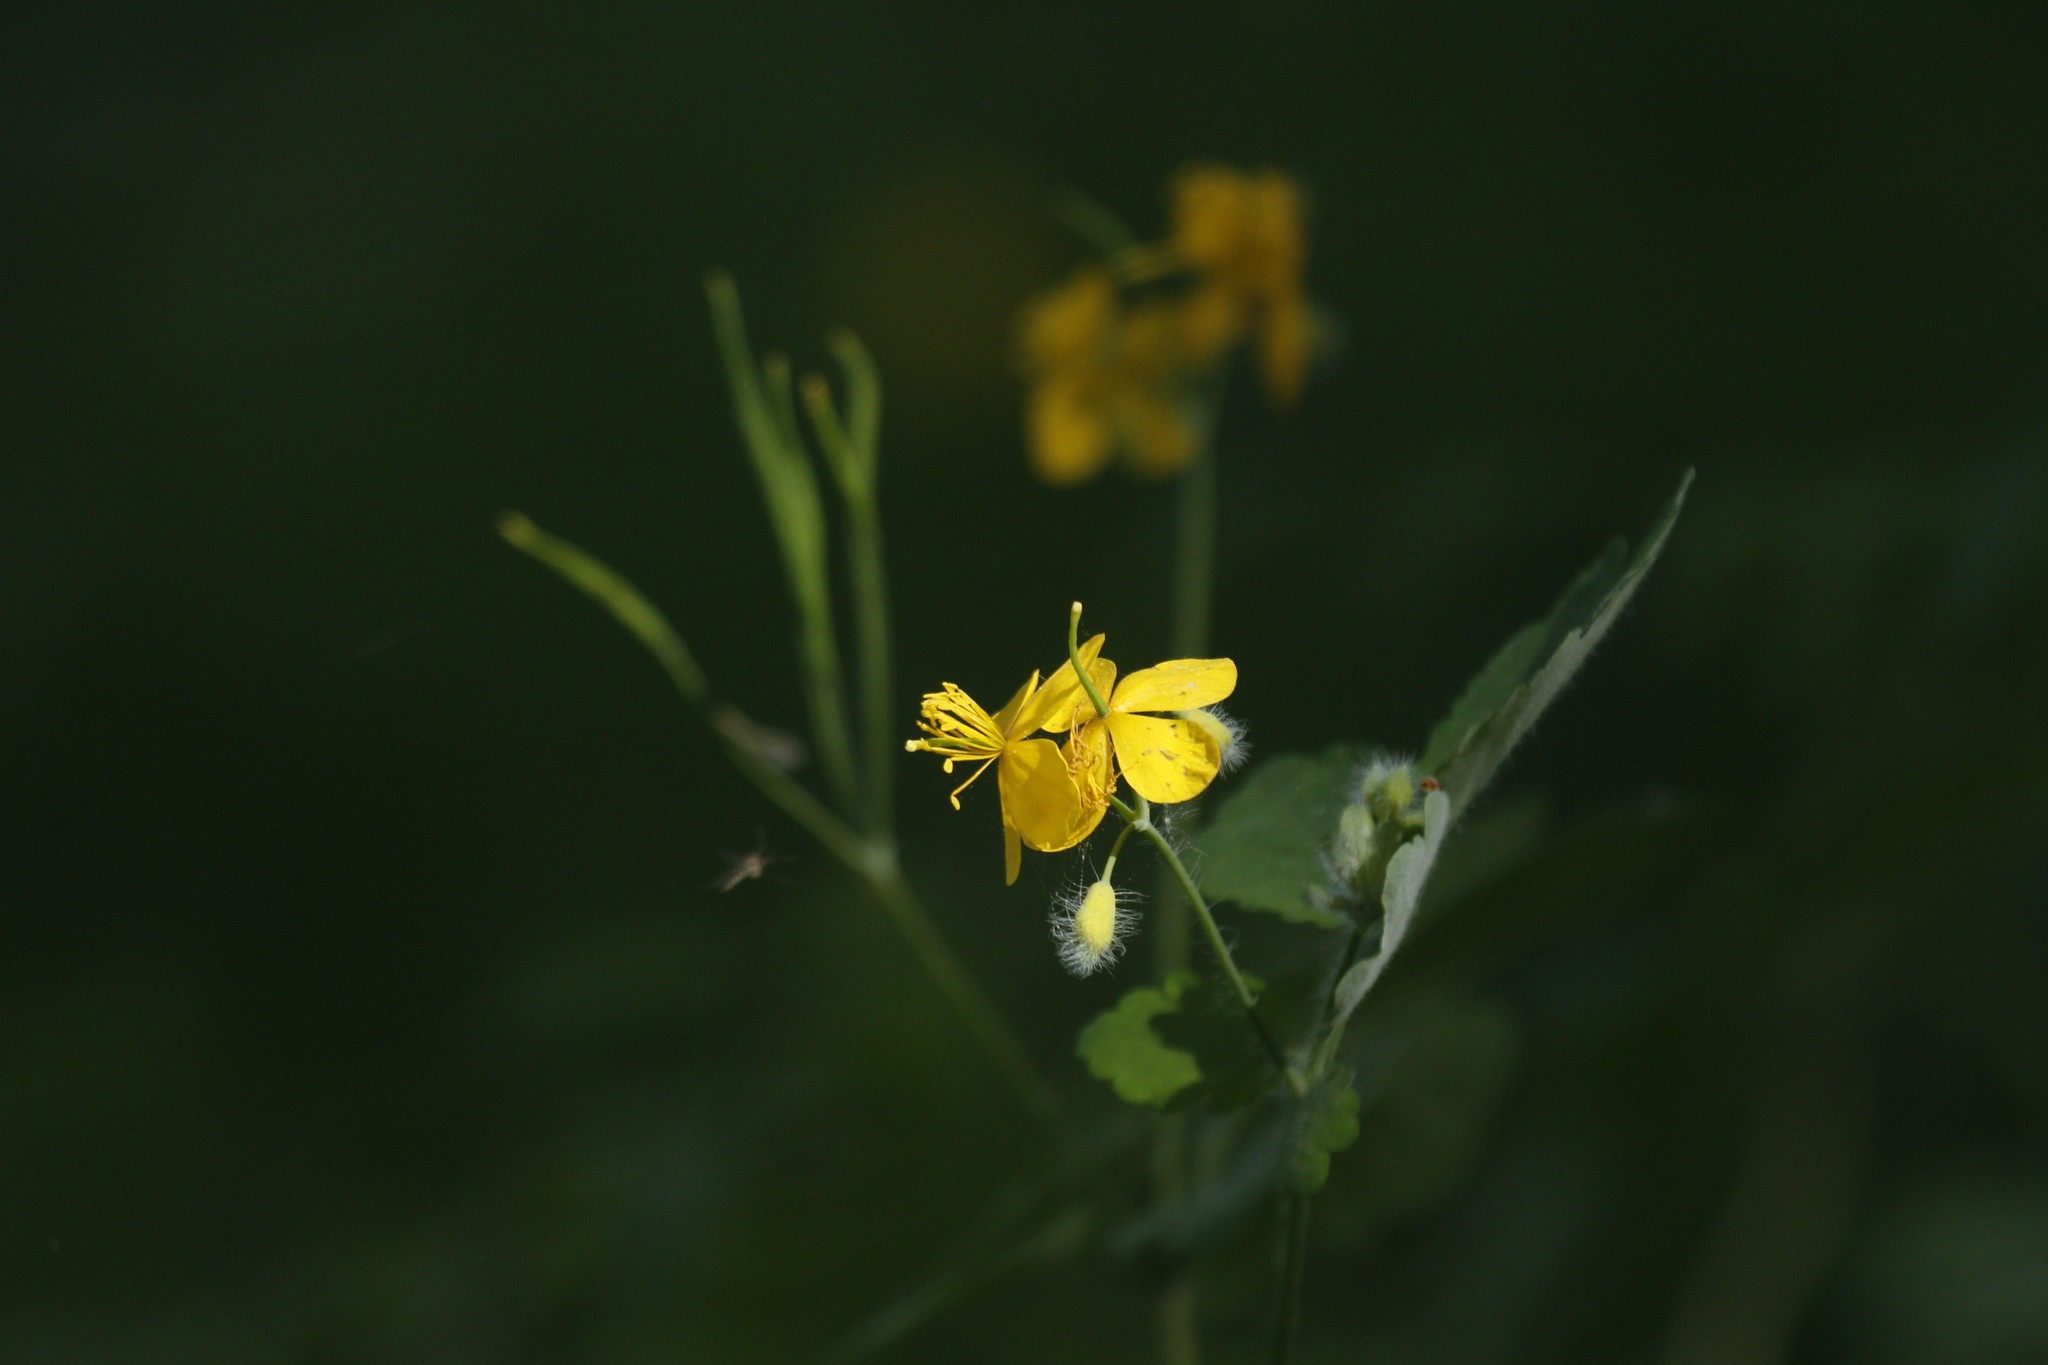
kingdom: Plantae
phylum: Tracheophyta
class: Magnoliopsida
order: Ranunculales
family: Papaveraceae
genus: Chelidonium
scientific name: Chelidonium majus
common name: Greater celandine
